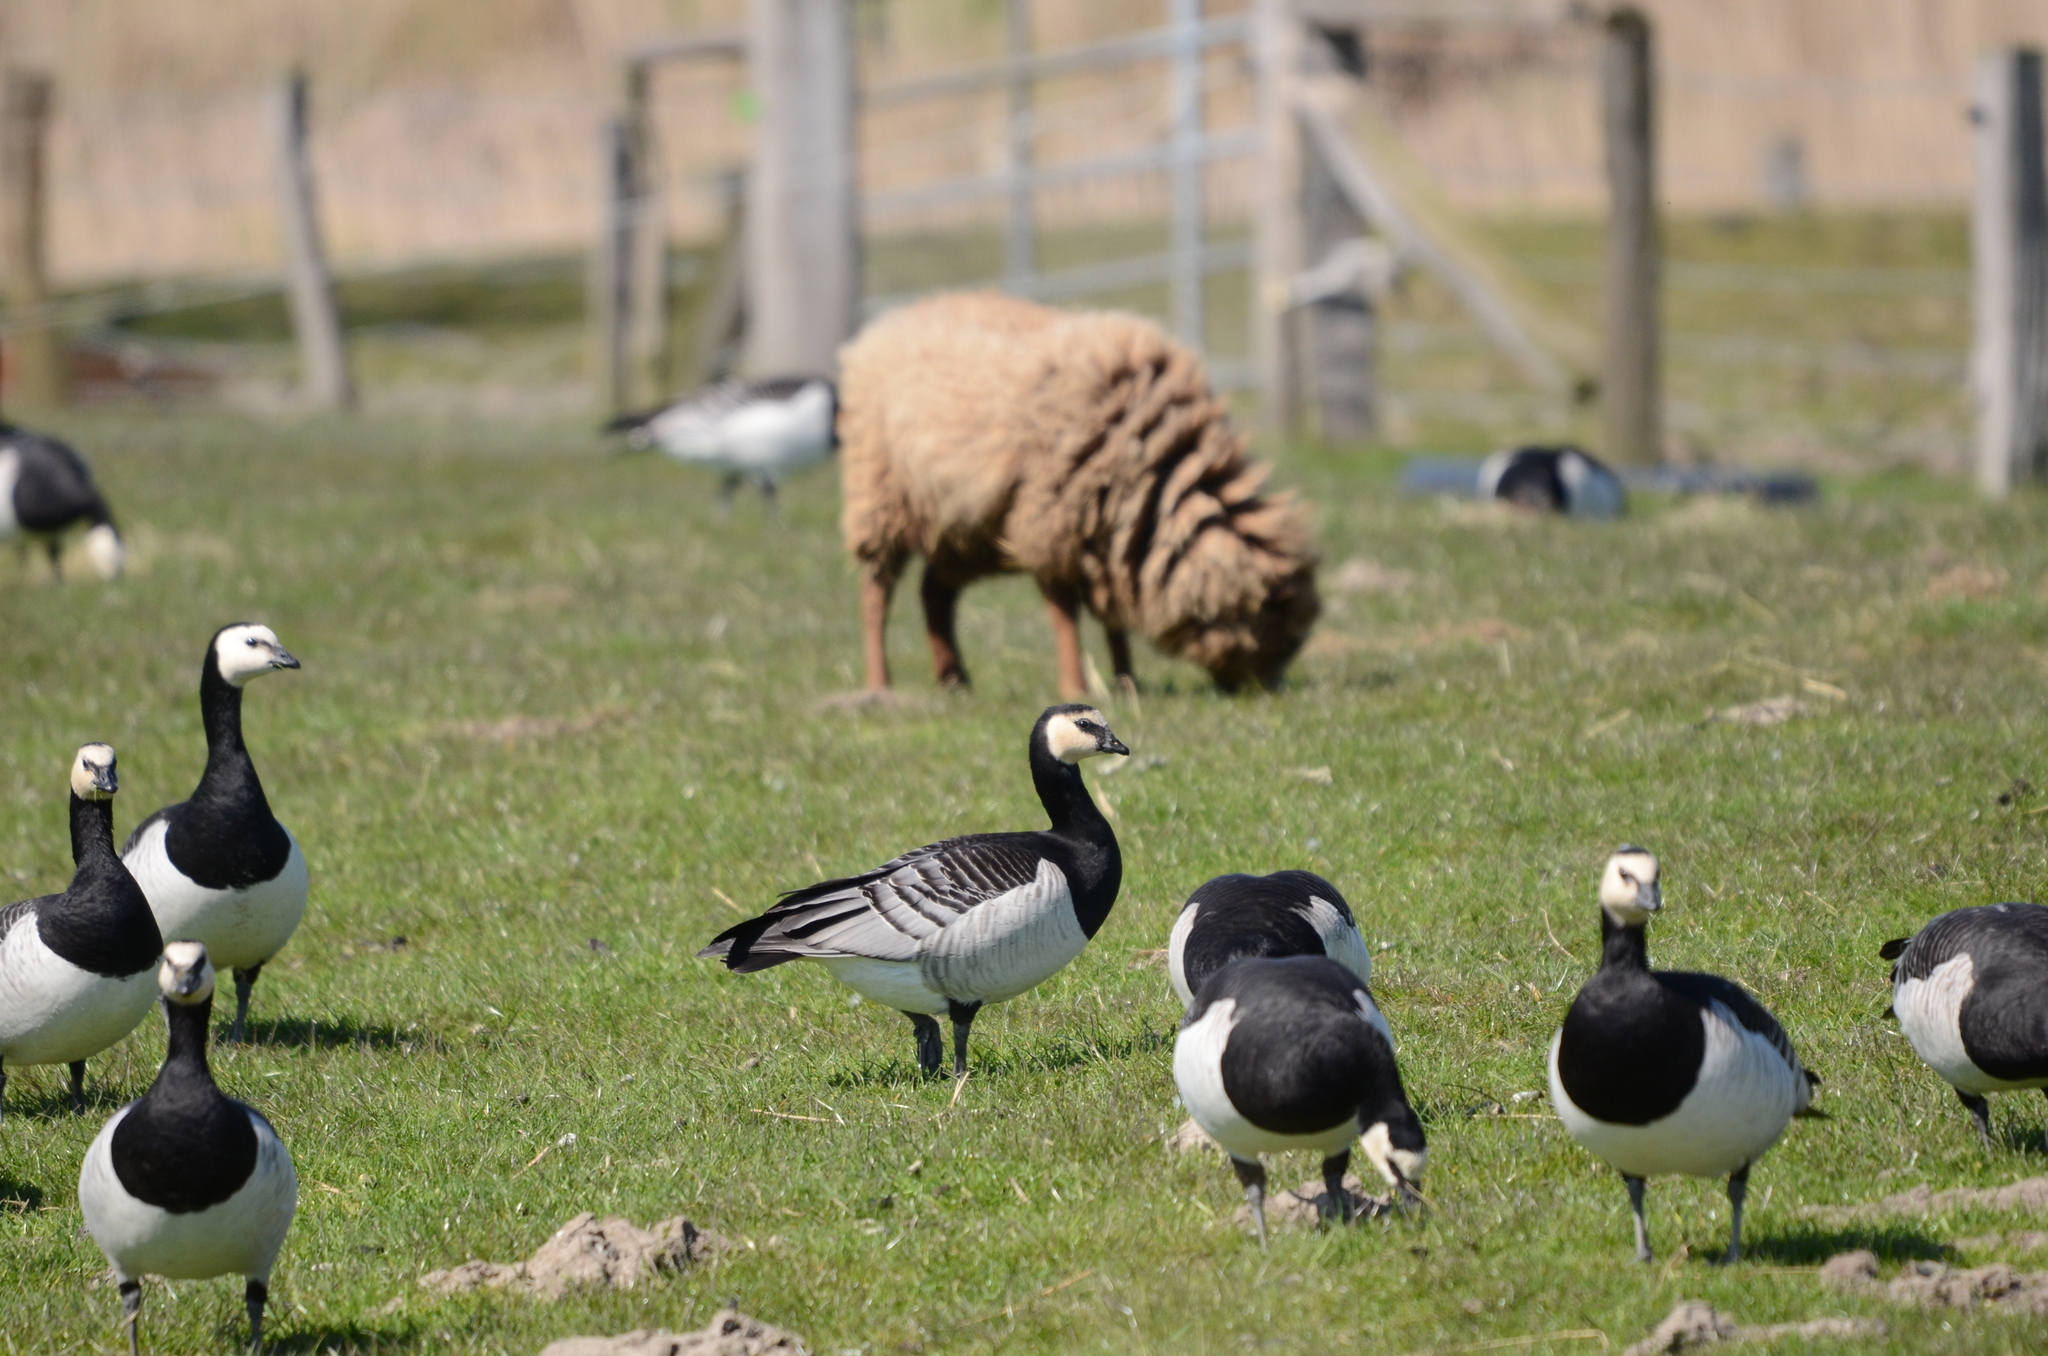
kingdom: Animalia
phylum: Chordata
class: Aves
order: Anseriformes
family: Anatidae
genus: Branta
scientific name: Branta leucopsis
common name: Barnacle goose
